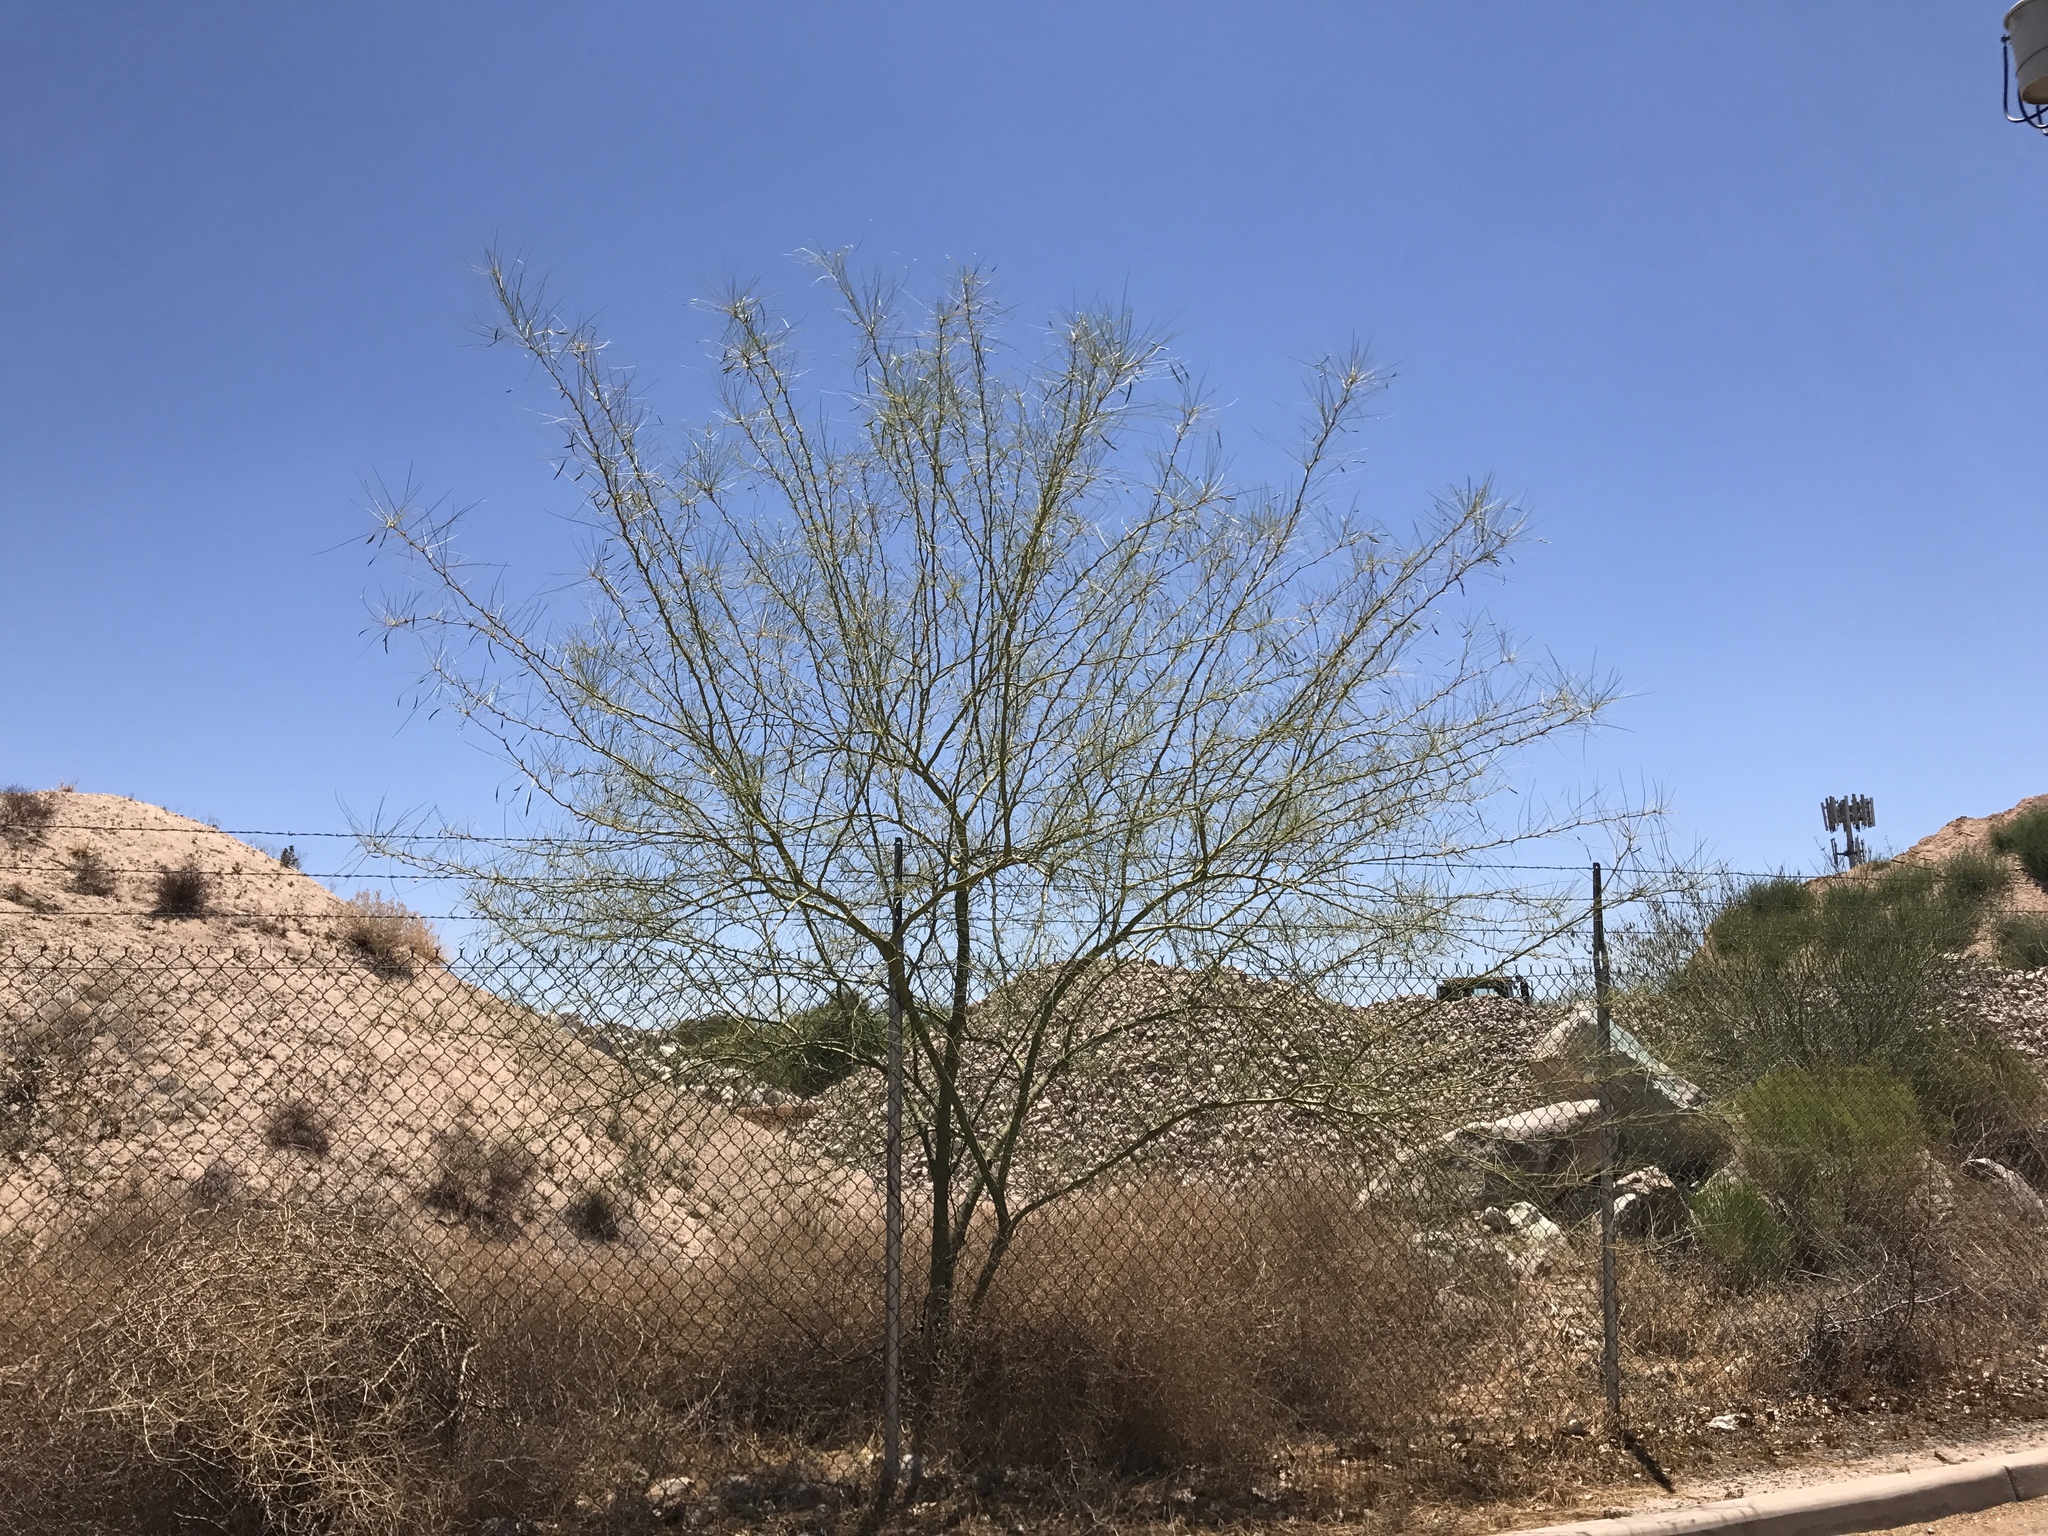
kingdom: Plantae
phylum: Tracheophyta
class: Magnoliopsida
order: Fabales
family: Fabaceae
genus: Parkinsonia
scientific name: Parkinsonia aculeata
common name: Jerusalem thorn
